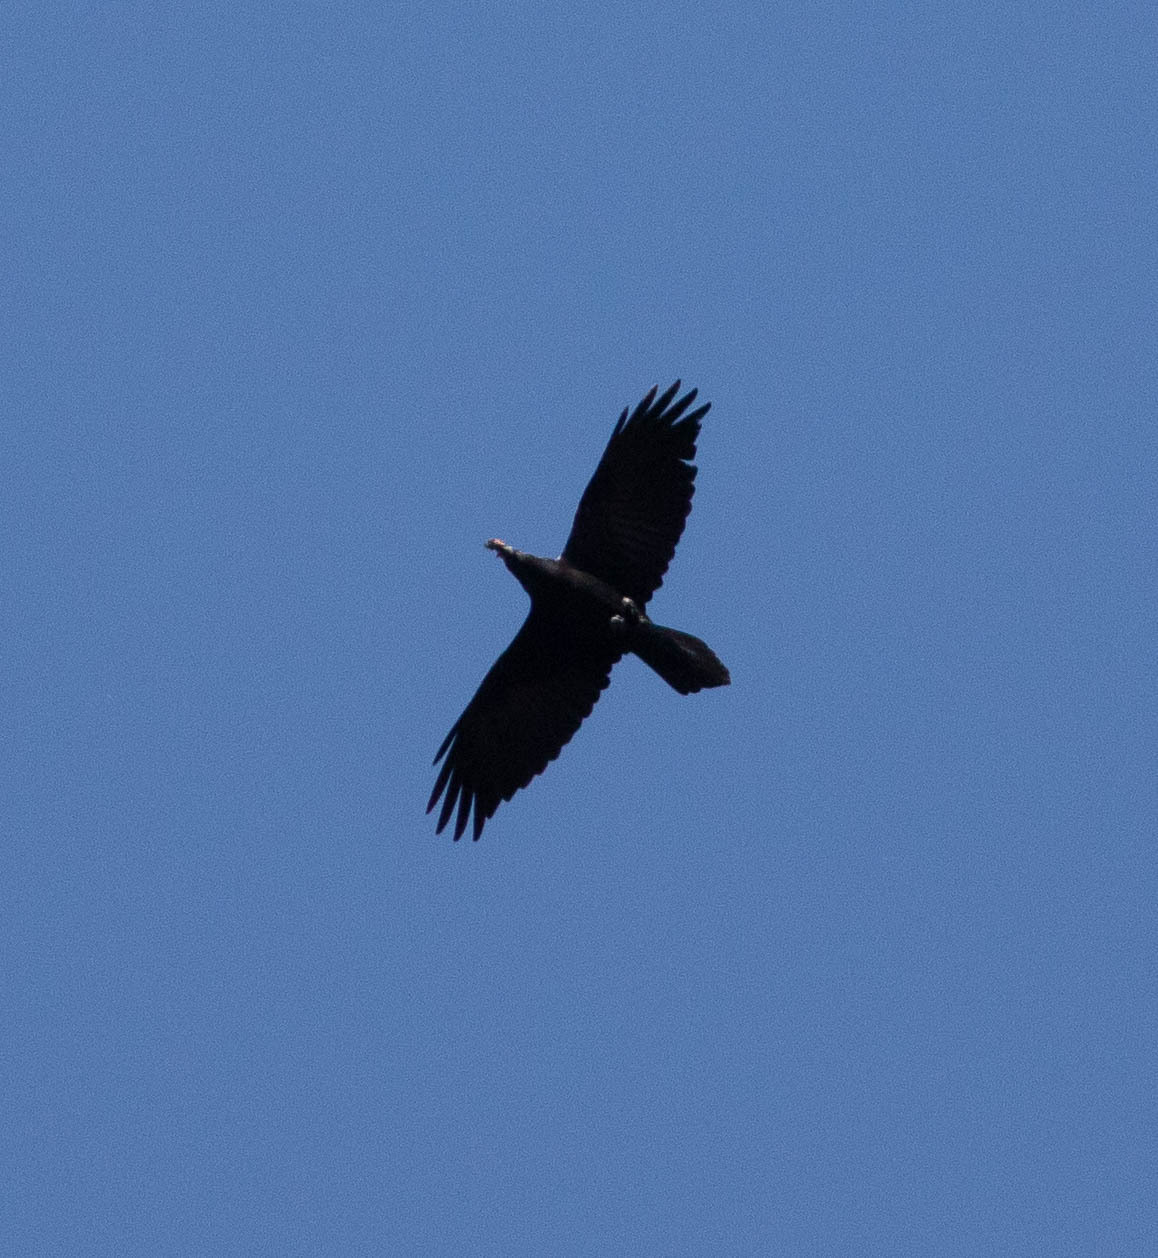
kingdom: Animalia
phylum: Chordata
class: Aves
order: Passeriformes
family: Corvidae
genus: Corvus
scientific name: Corvus corax
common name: Common raven
